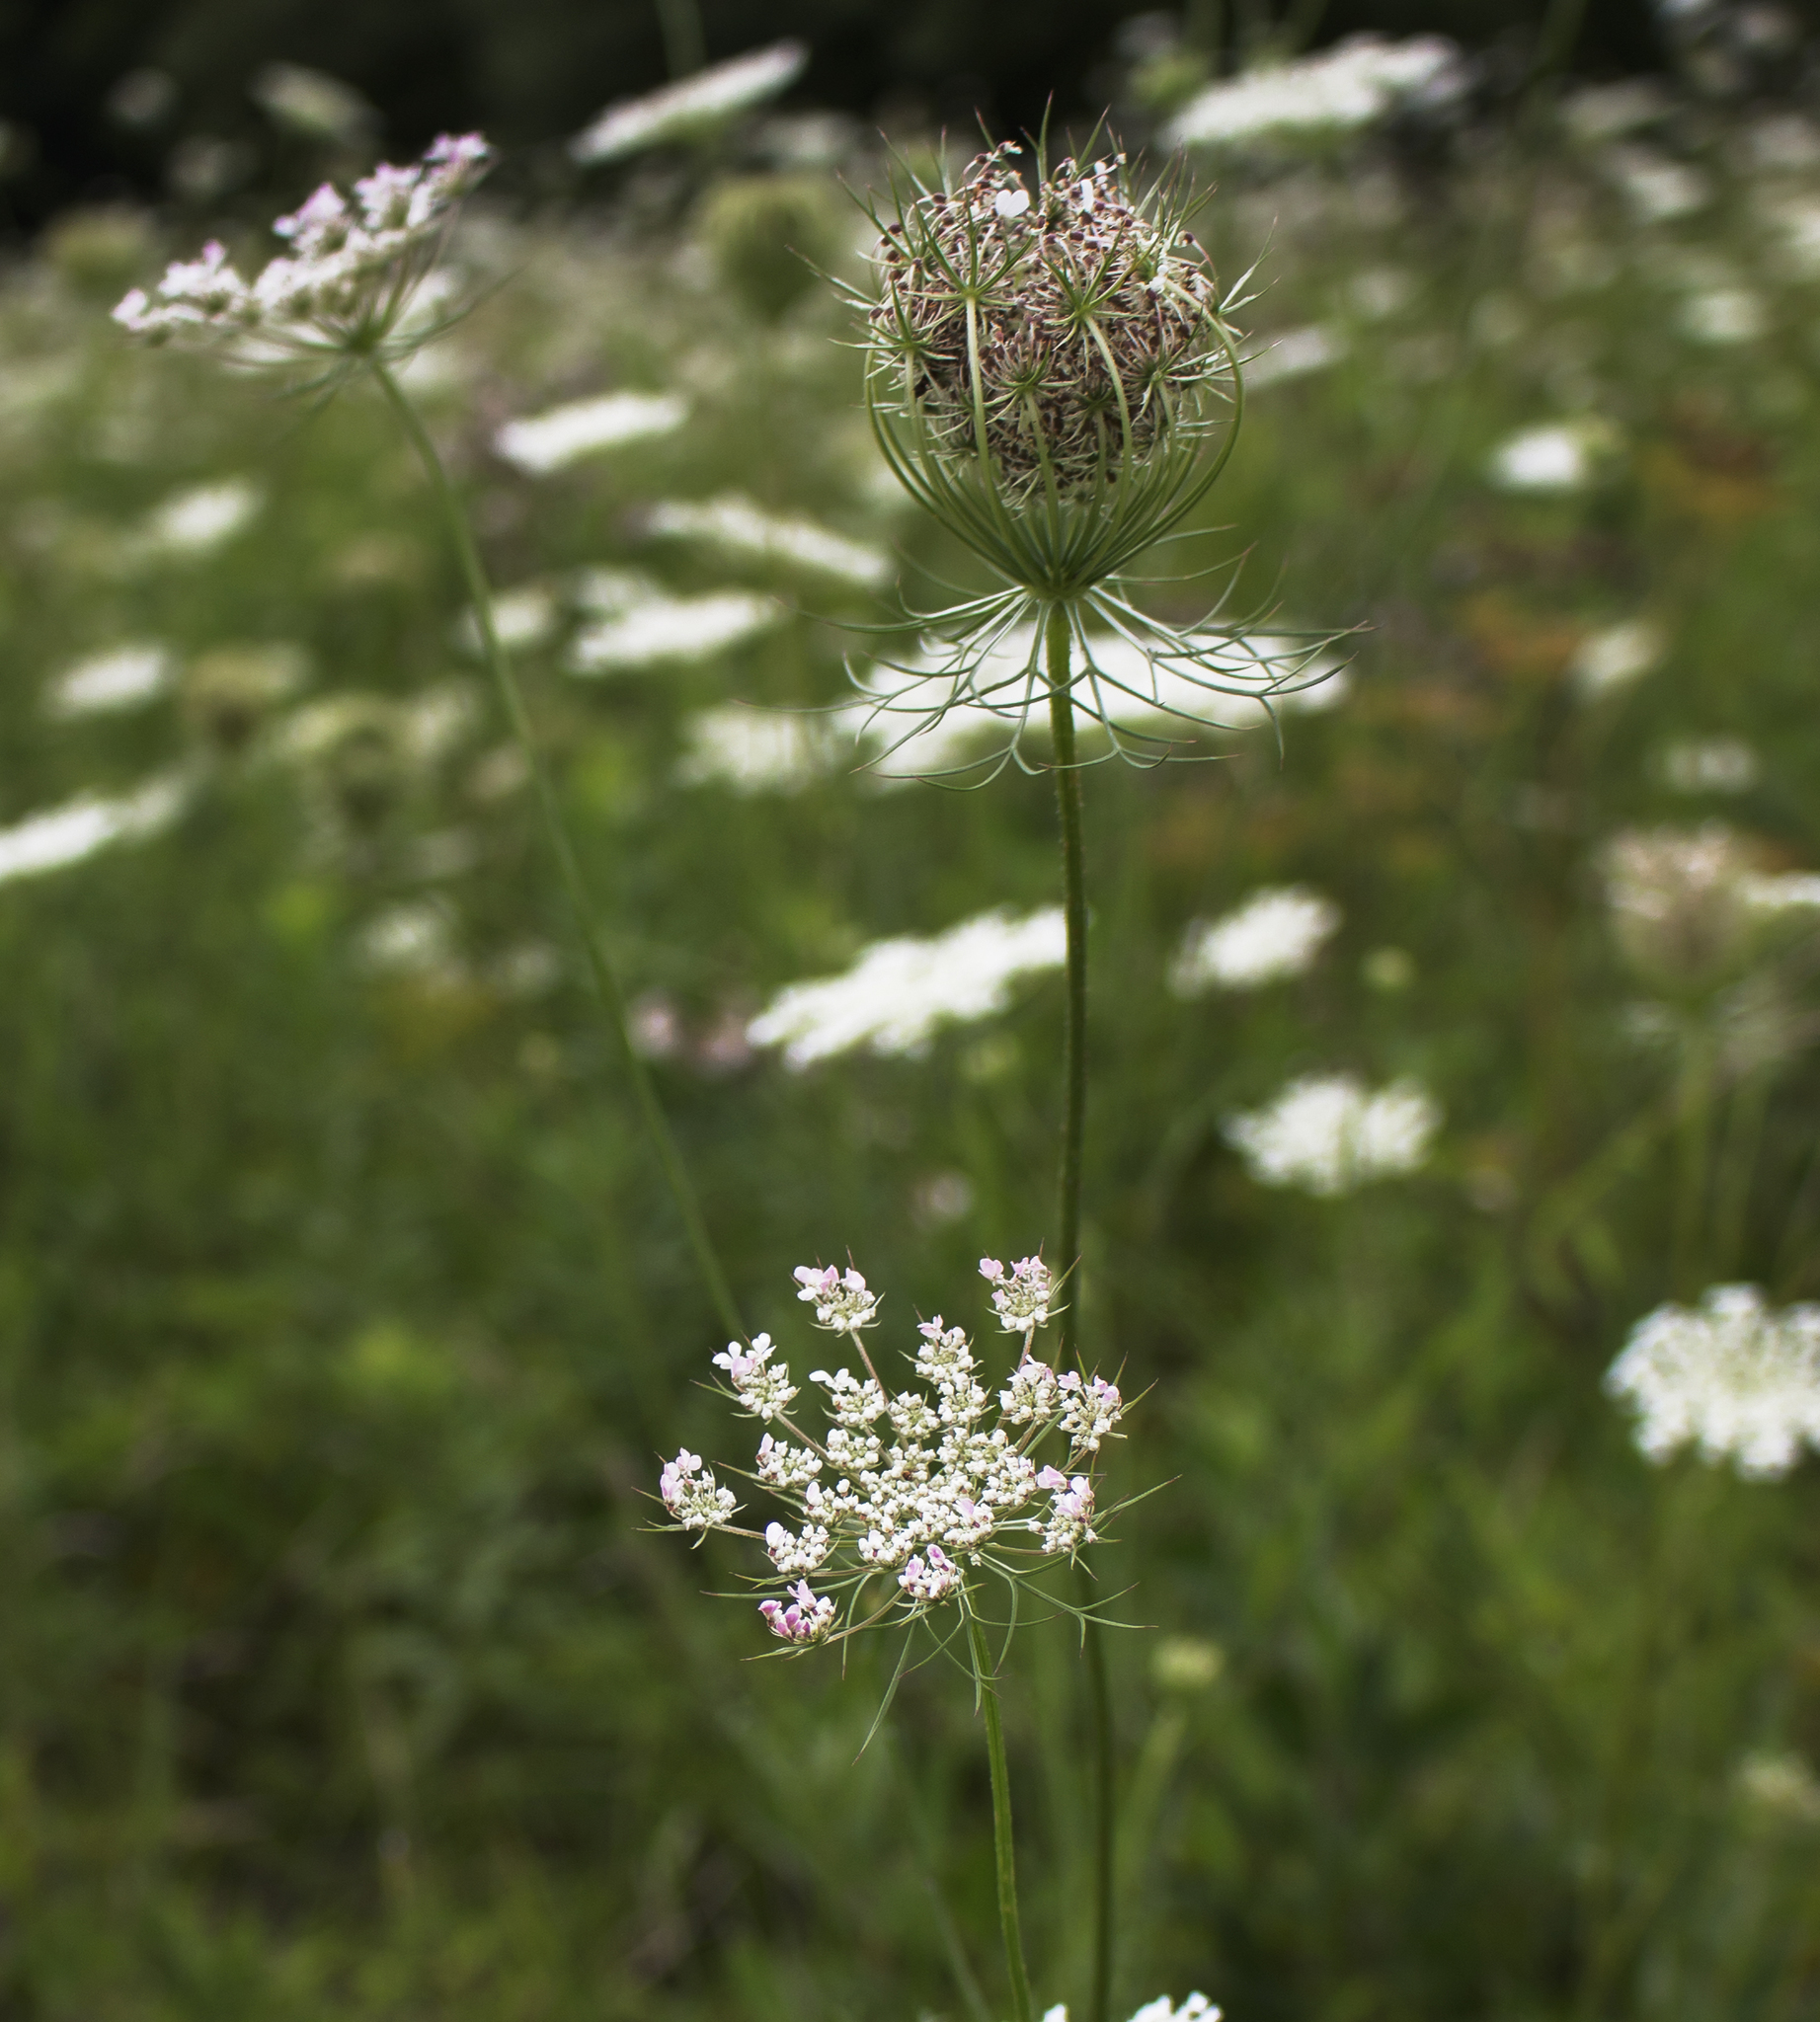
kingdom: Plantae
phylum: Tracheophyta
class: Magnoliopsida
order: Apiales
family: Apiaceae
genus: Daucus
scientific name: Daucus carota
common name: Wild carrot
